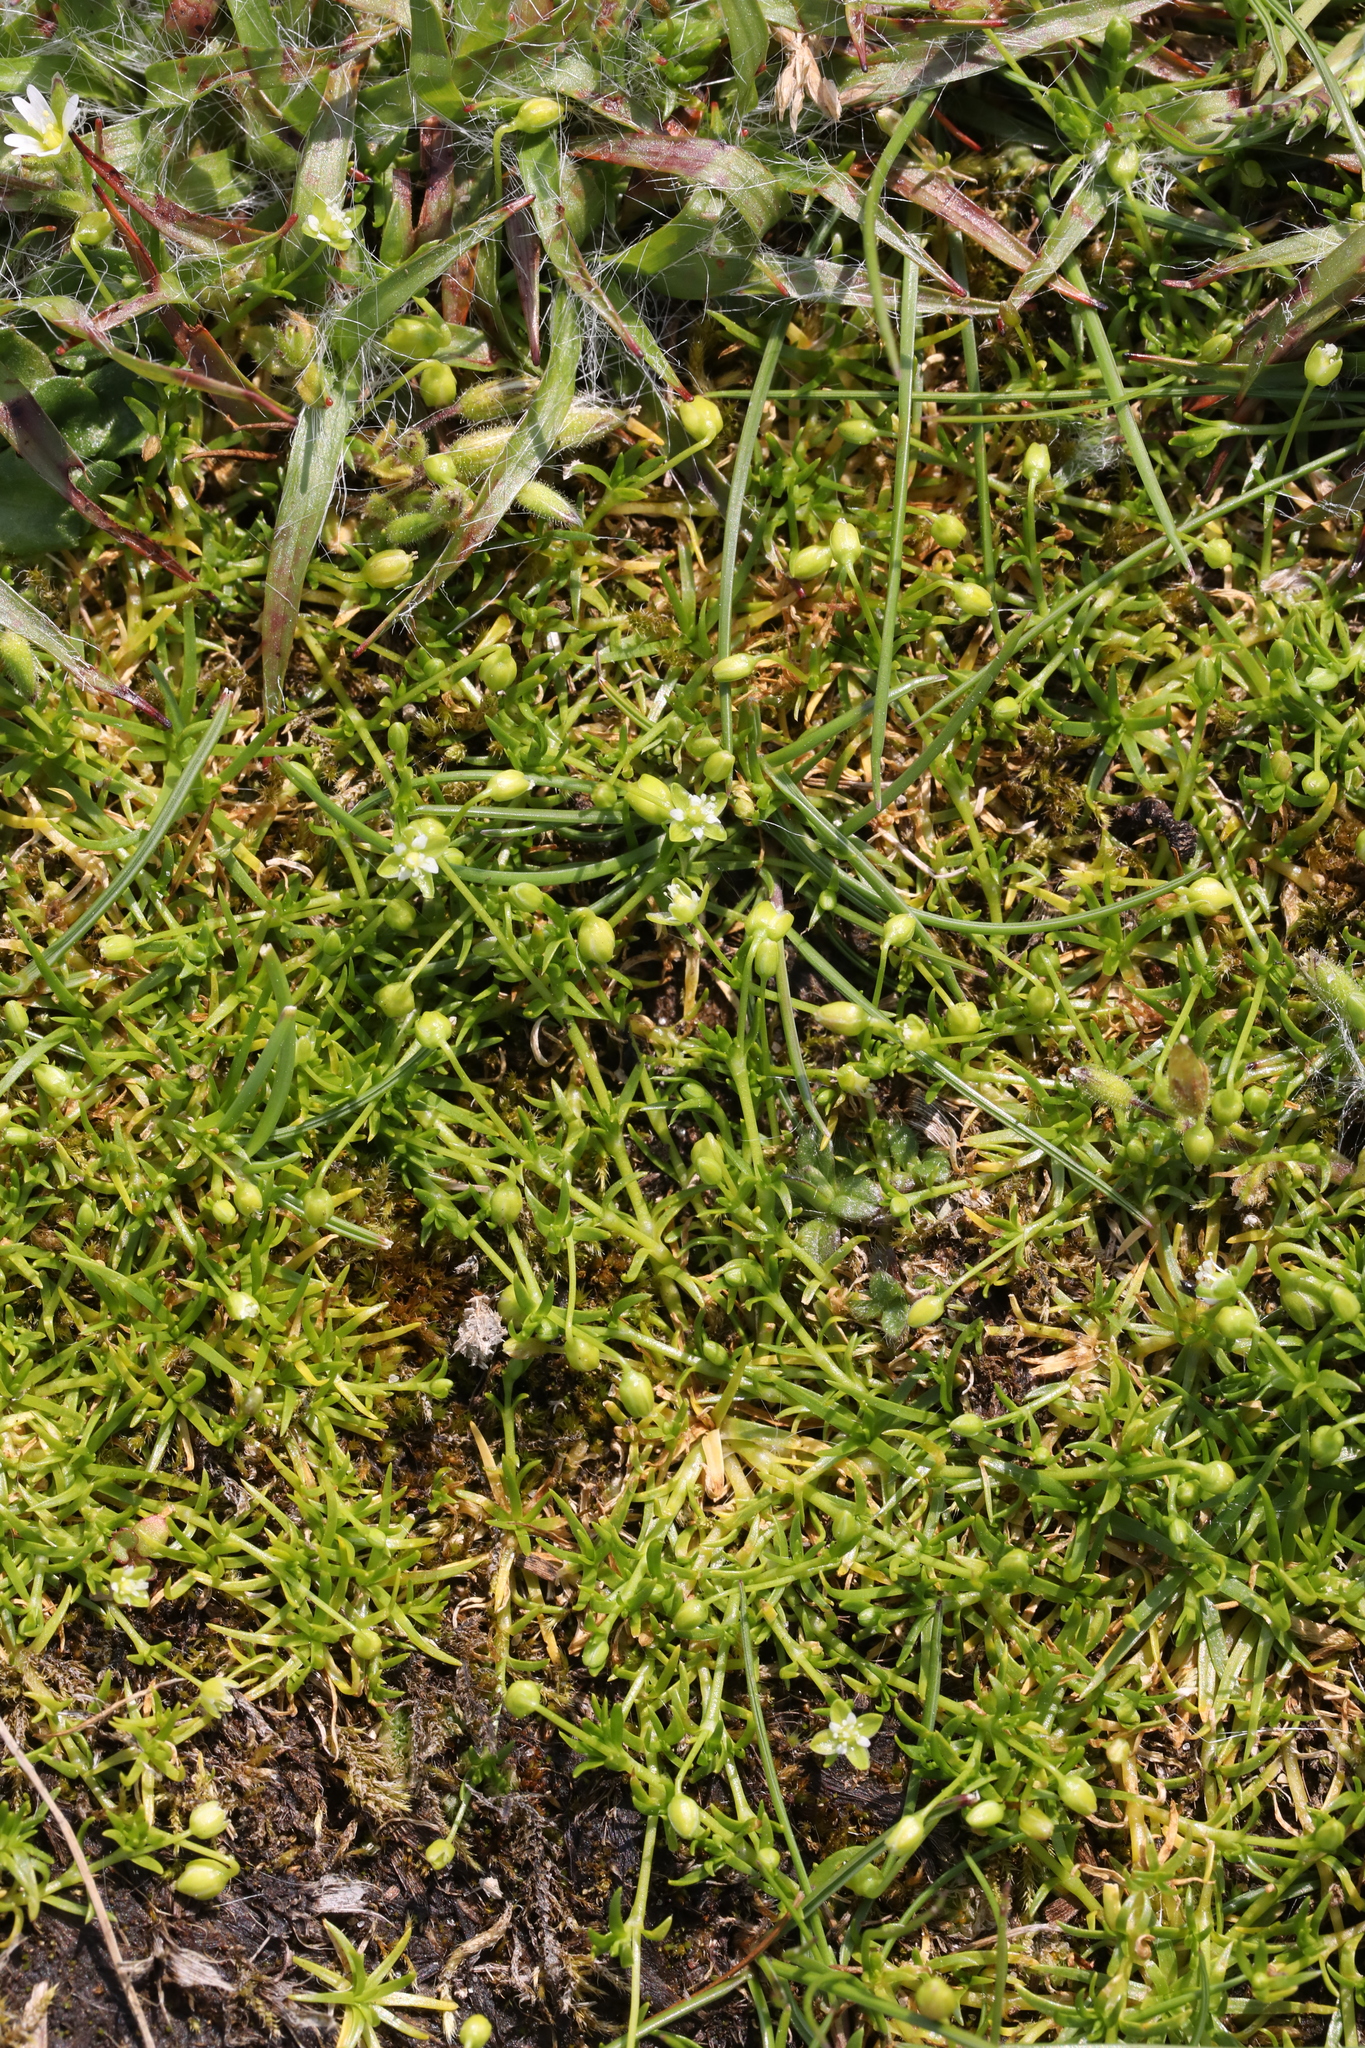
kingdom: Plantae
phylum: Tracheophyta
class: Magnoliopsida
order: Caryophyllales
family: Caryophyllaceae
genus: Sagina
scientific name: Sagina procumbens
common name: Procumbent pearlwort
